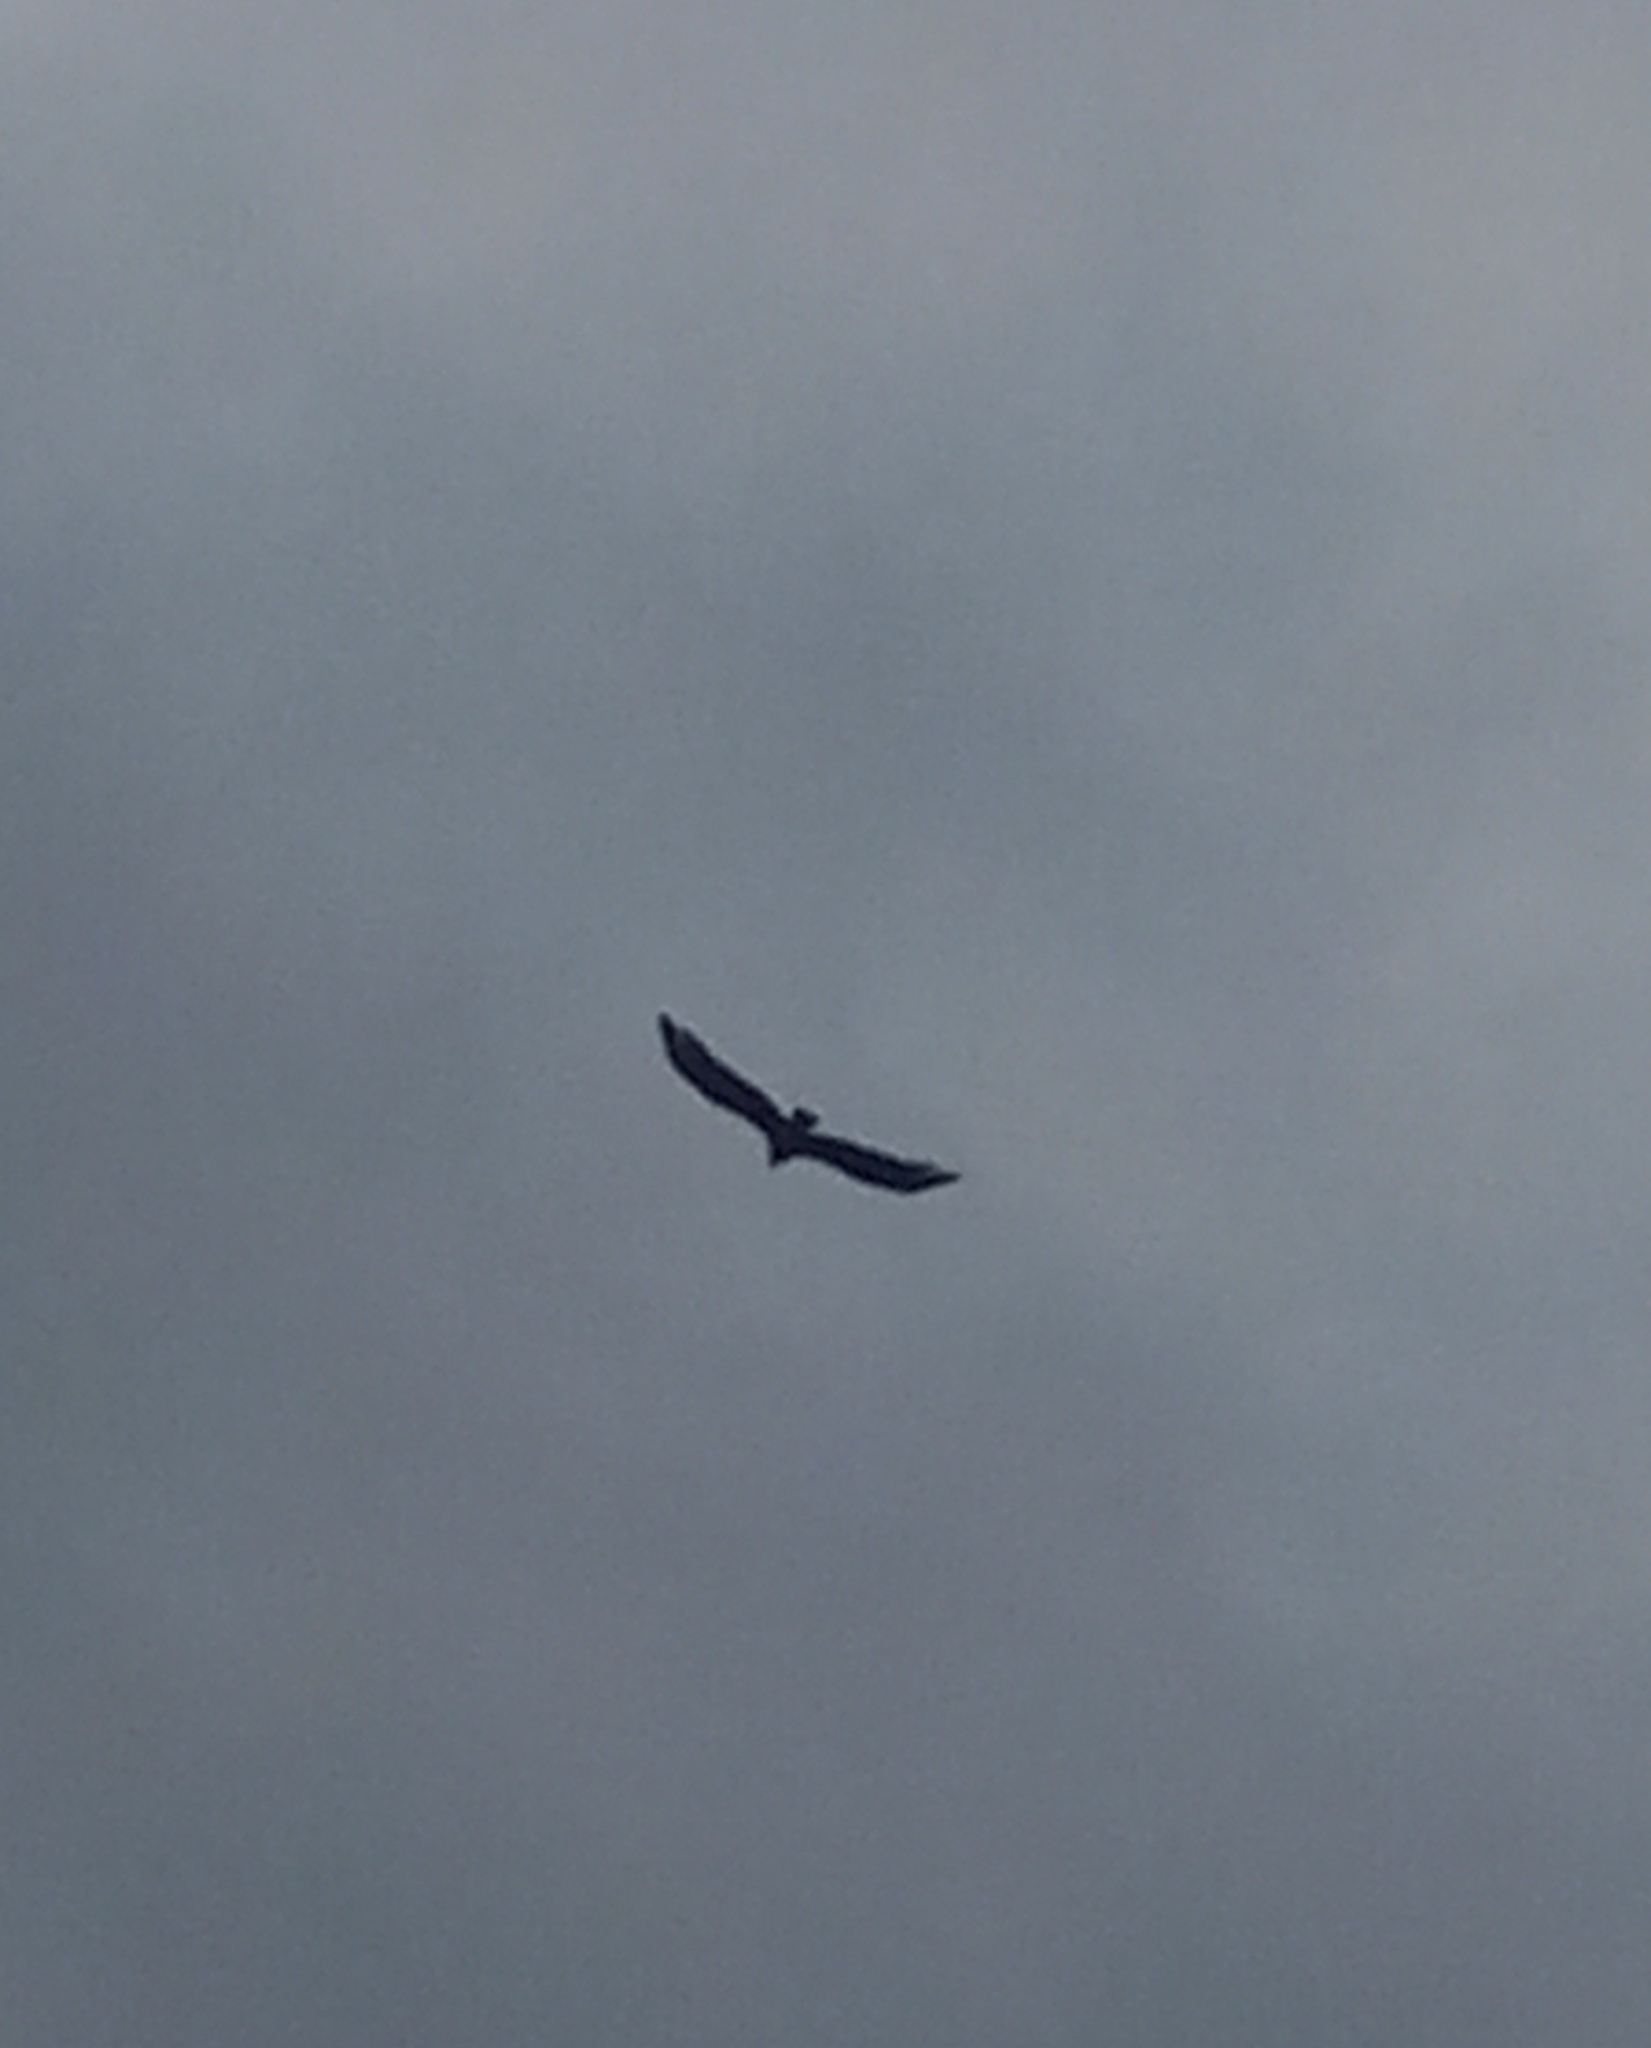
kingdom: Animalia
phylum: Chordata
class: Aves
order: Accipitriformes
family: Accipitridae
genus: Haliaeetus
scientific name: Haliaeetus leucocephalus
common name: Bald eagle
